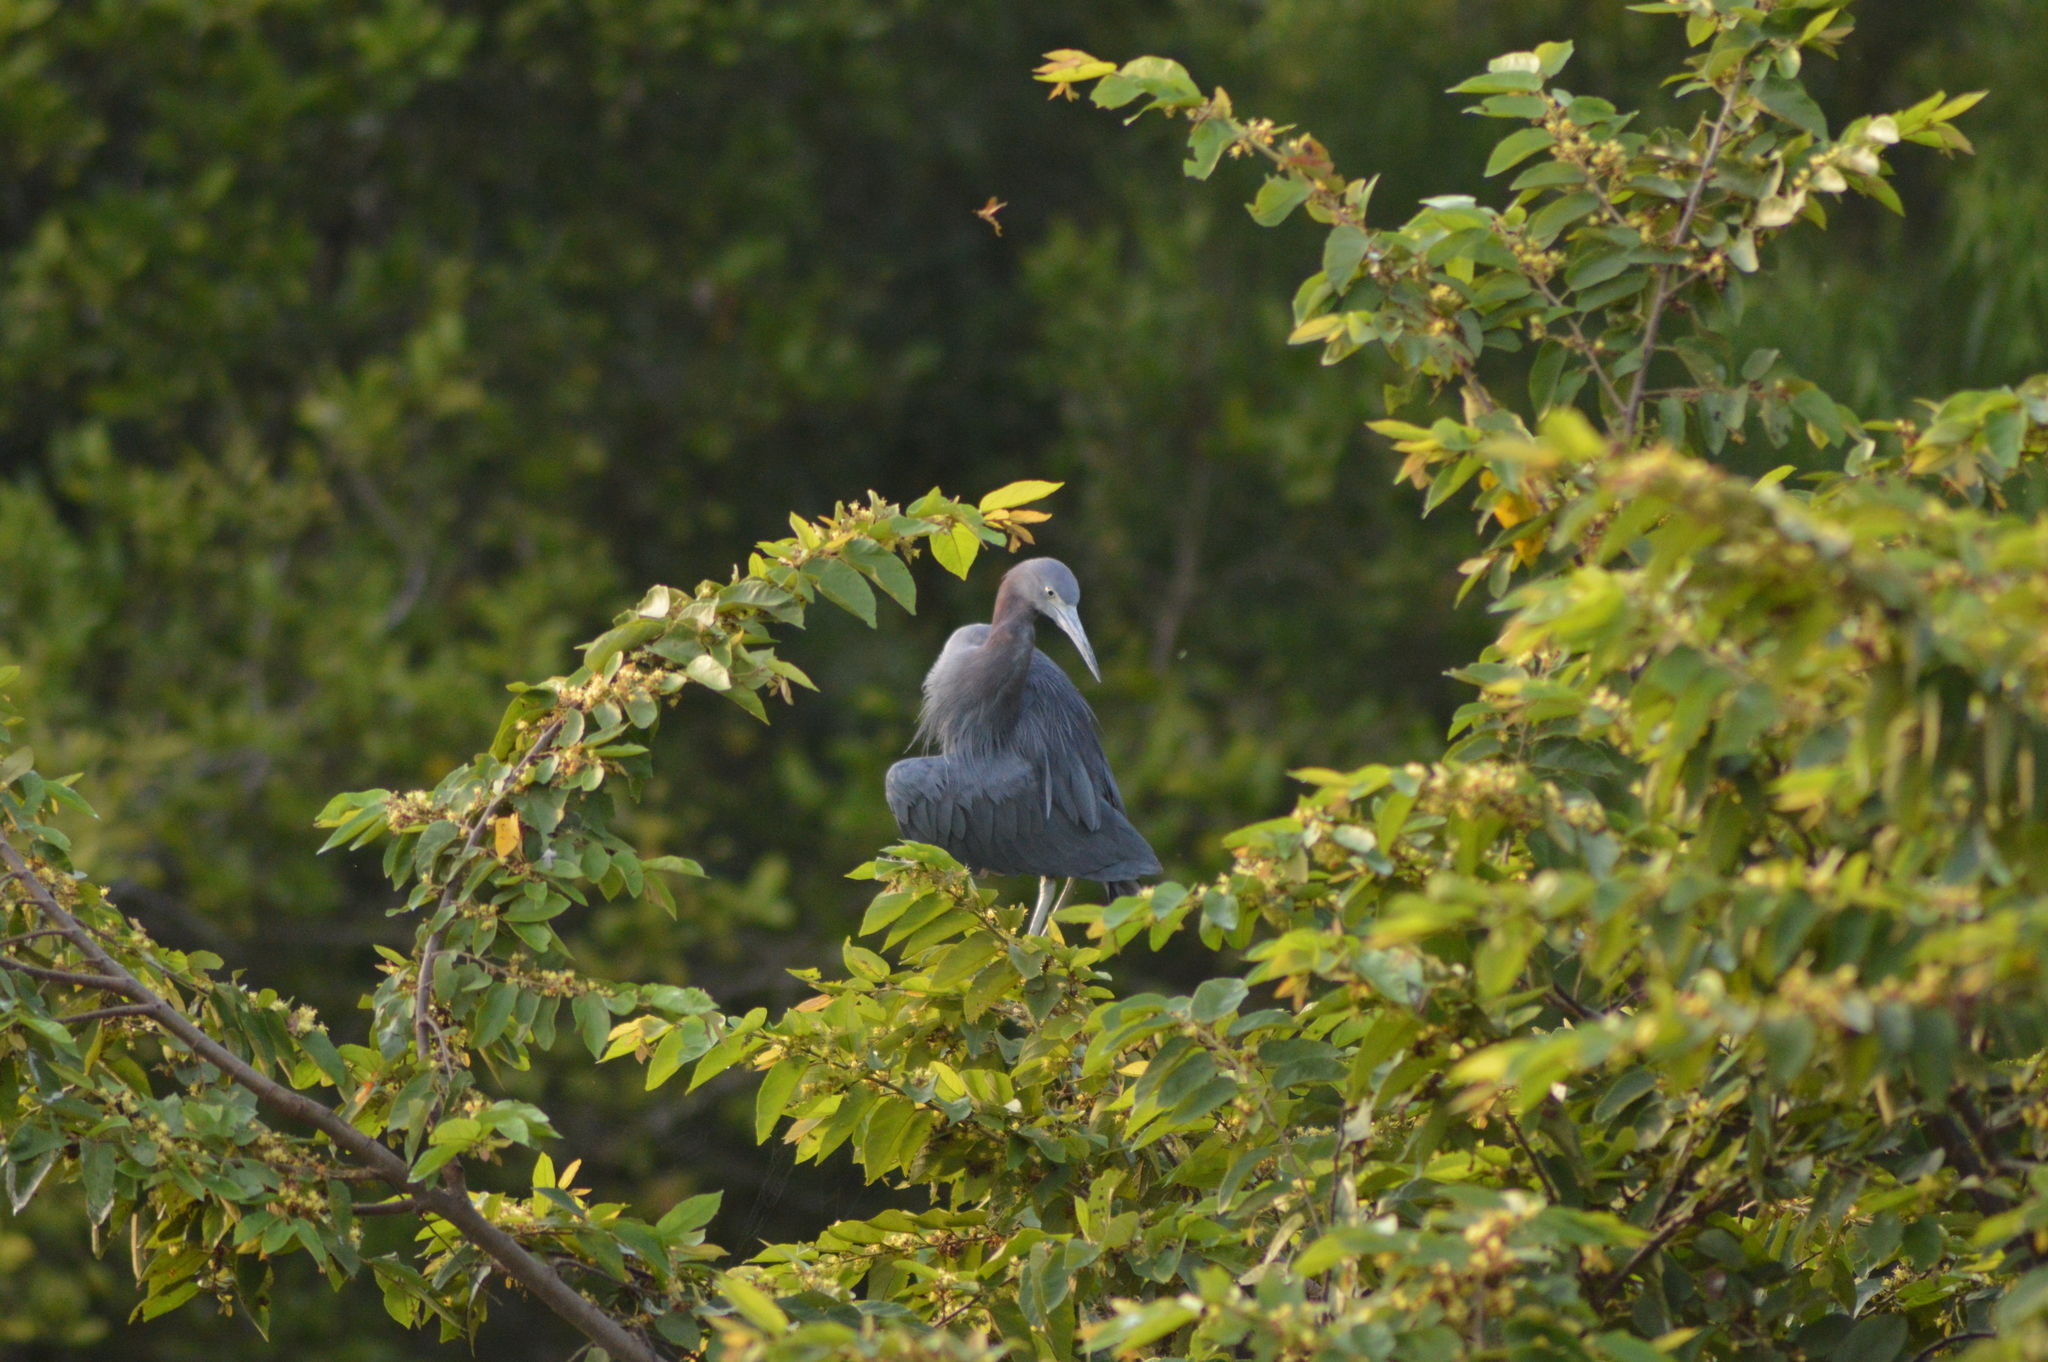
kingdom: Animalia
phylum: Chordata
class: Aves
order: Pelecaniformes
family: Ardeidae
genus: Egretta
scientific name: Egretta caerulea
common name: Little blue heron
